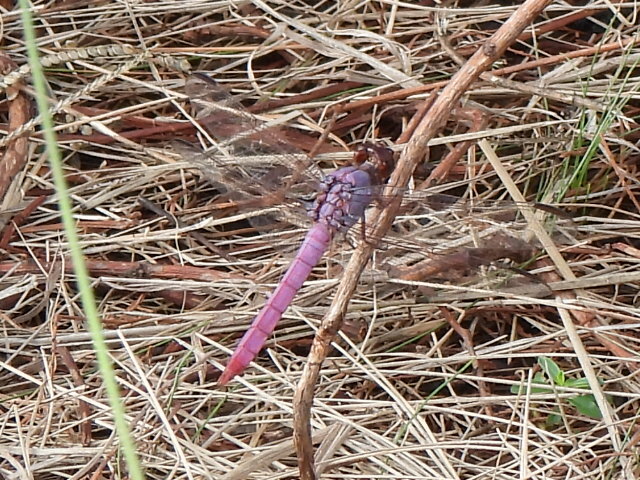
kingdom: Animalia
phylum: Arthropoda
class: Insecta
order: Odonata
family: Libellulidae
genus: Orthemis
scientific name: Orthemis ferruginea
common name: Roseate skimmer
